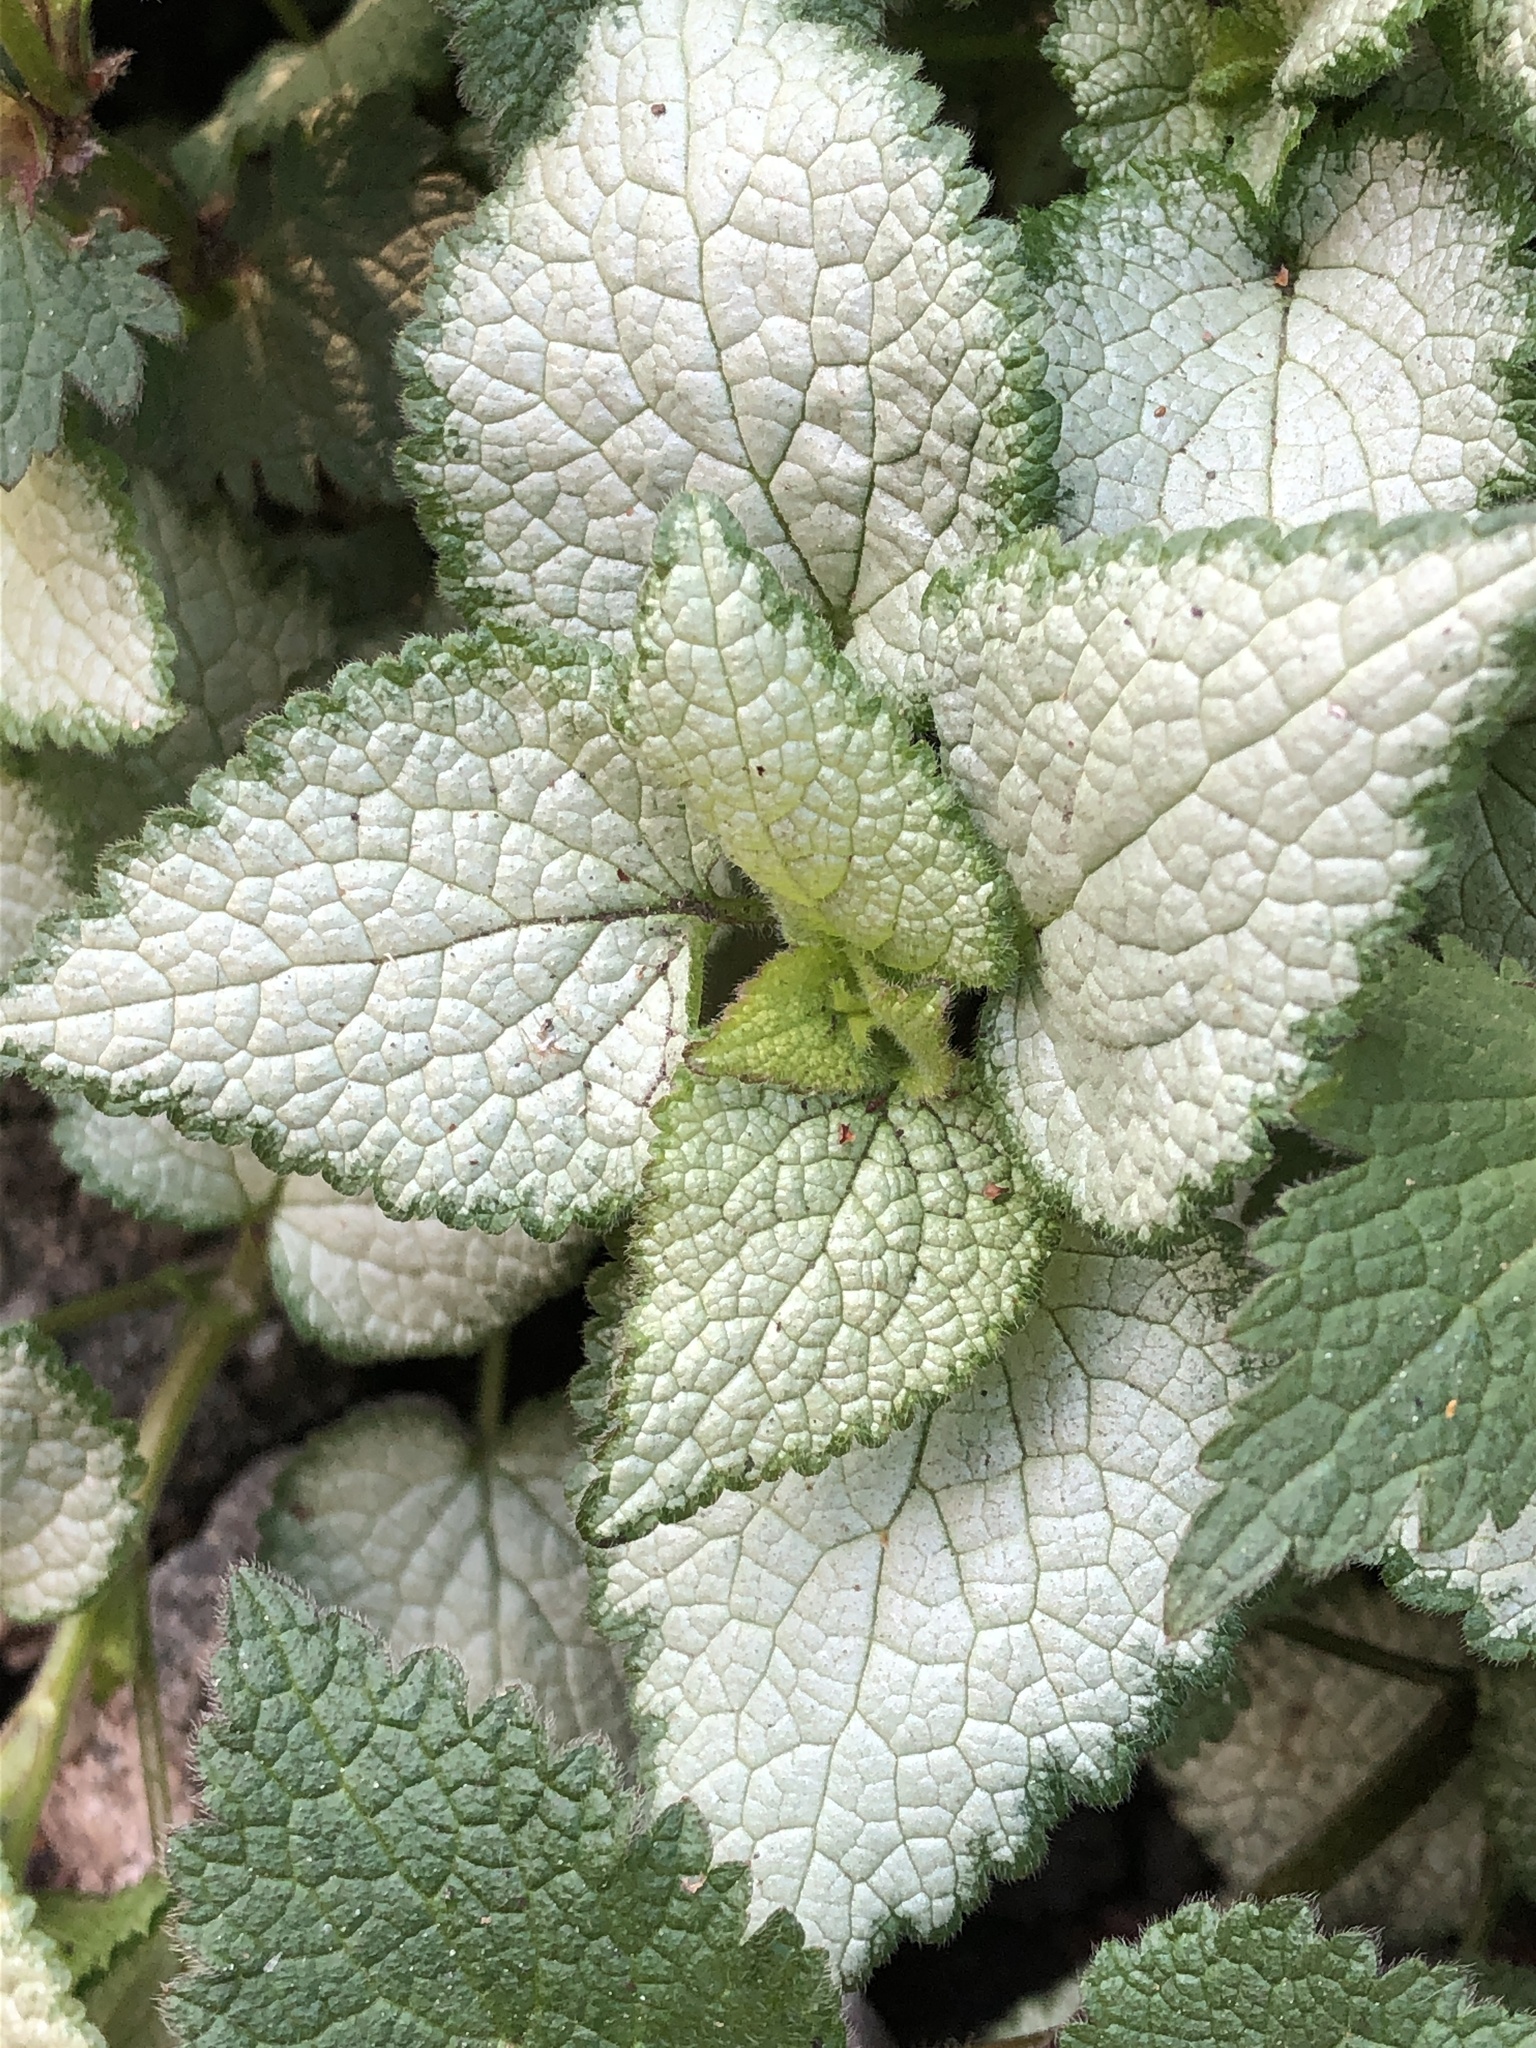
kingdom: Plantae
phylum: Tracheophyta
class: Magnoliopsida
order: Lamiales
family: Lamiaceae
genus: Lamium
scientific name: Lamium maculatum
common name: Spotted dead-nettle
